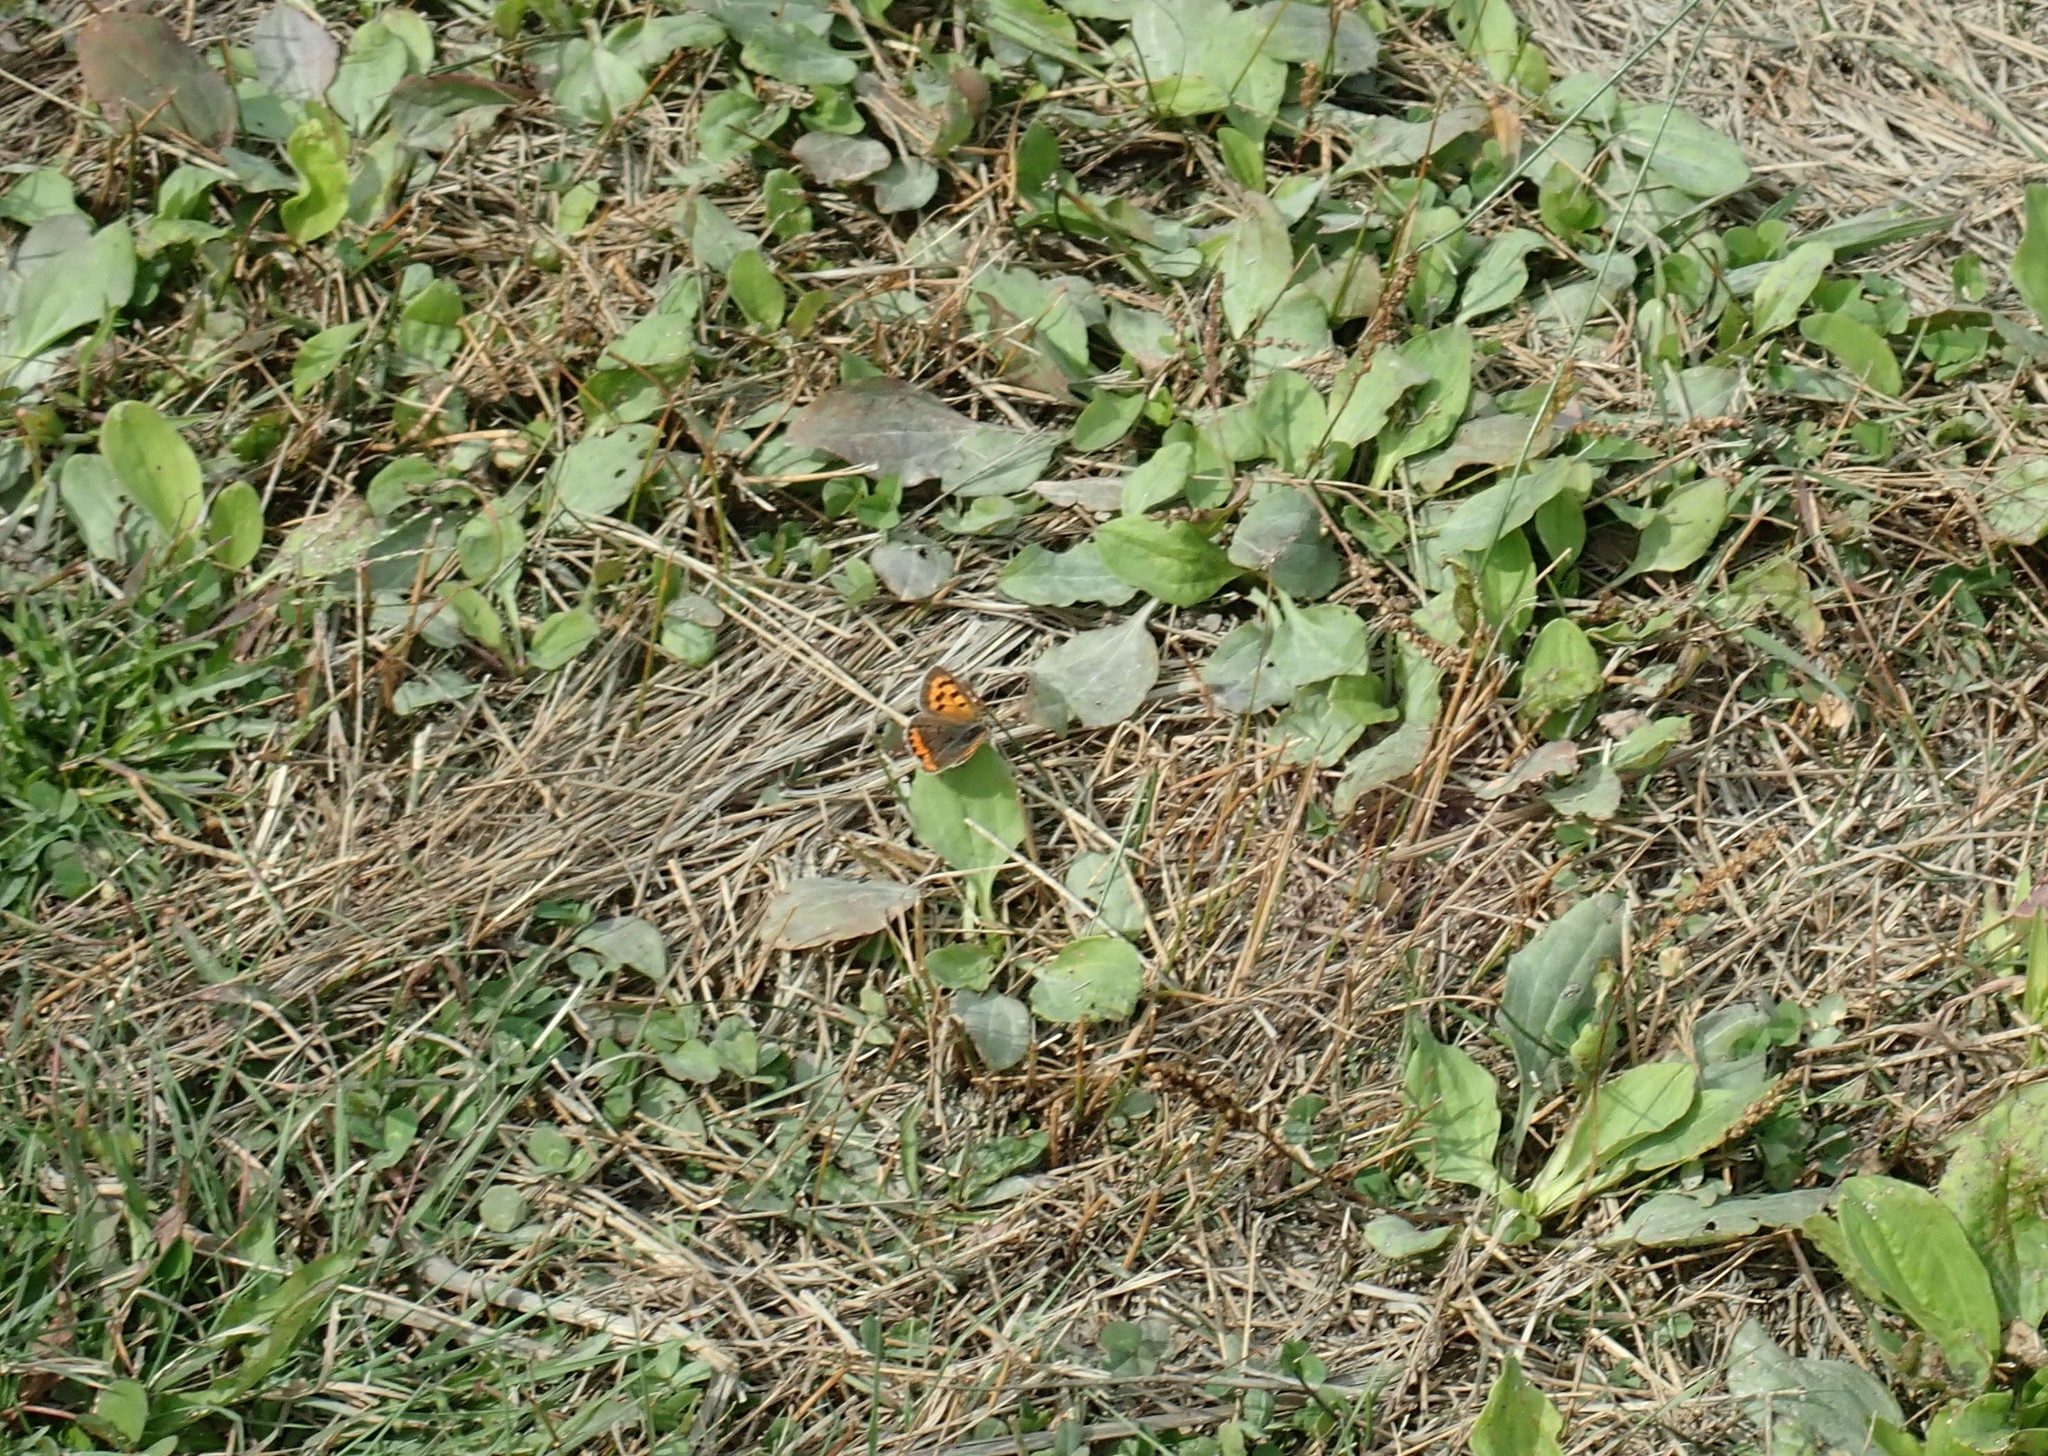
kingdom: Animalia
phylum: Arthropoda
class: Insecta
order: Lepidoptera
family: Lycaenidae
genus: Lycaena
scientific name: Lycaena hypophlaeas
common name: American copper
